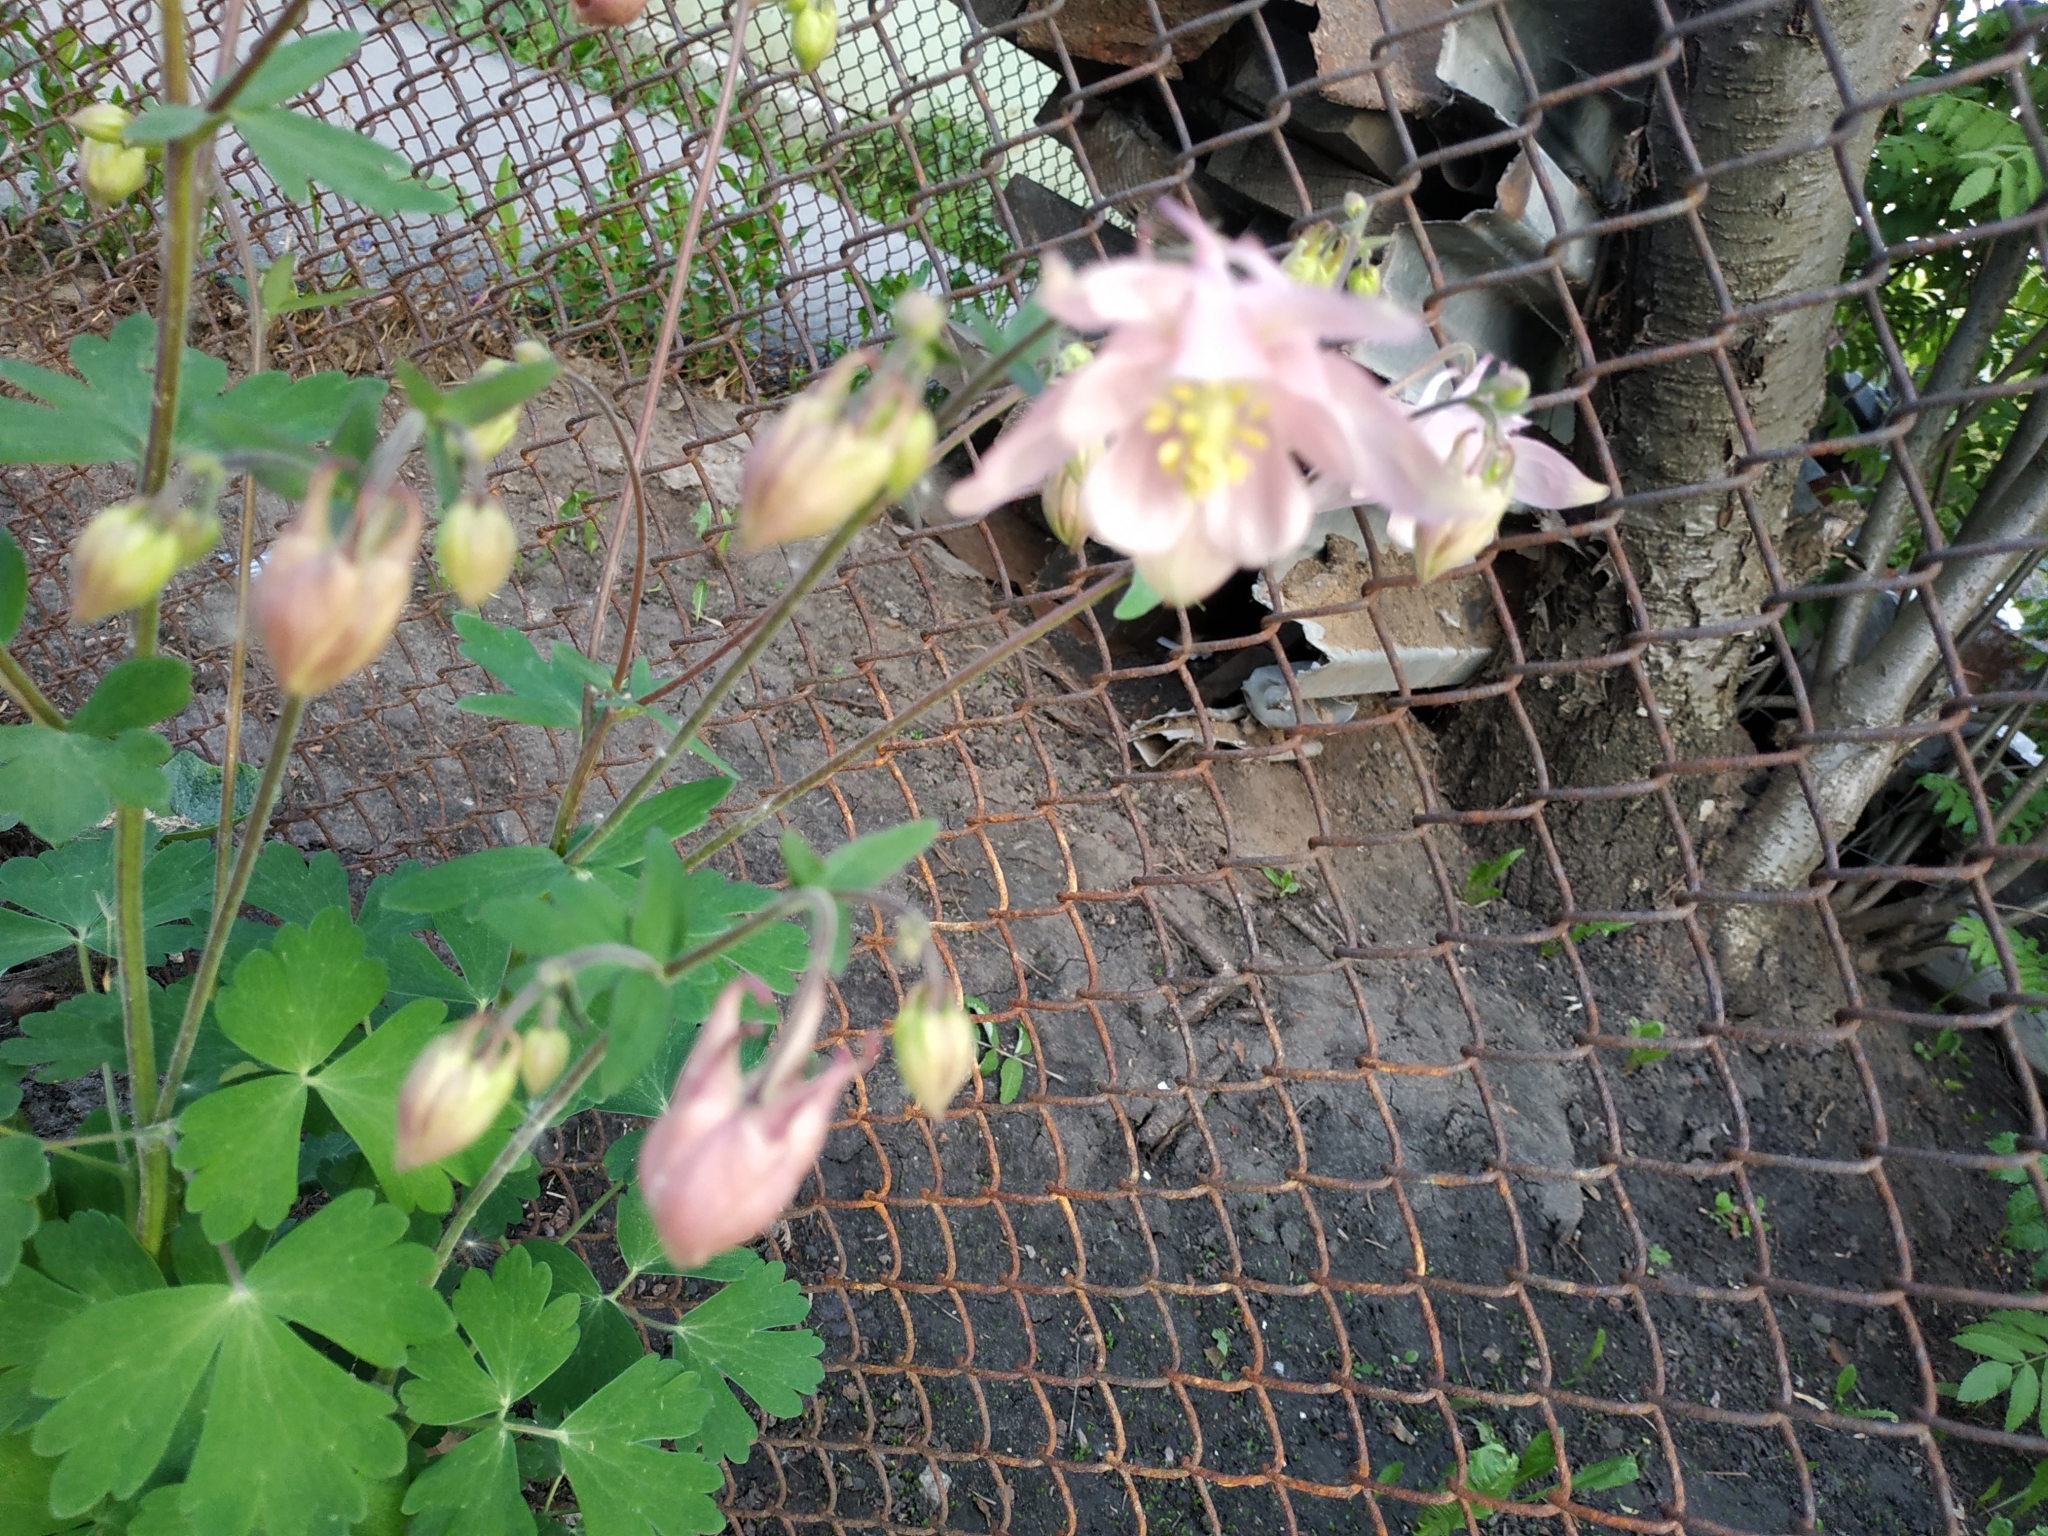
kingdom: Plantae
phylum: Tracheophyta
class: Magnoliopsida
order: Ranunculales
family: Ranunculaceae
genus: Aquilegia
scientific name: Aquilegia vulgaris
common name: Columbine
